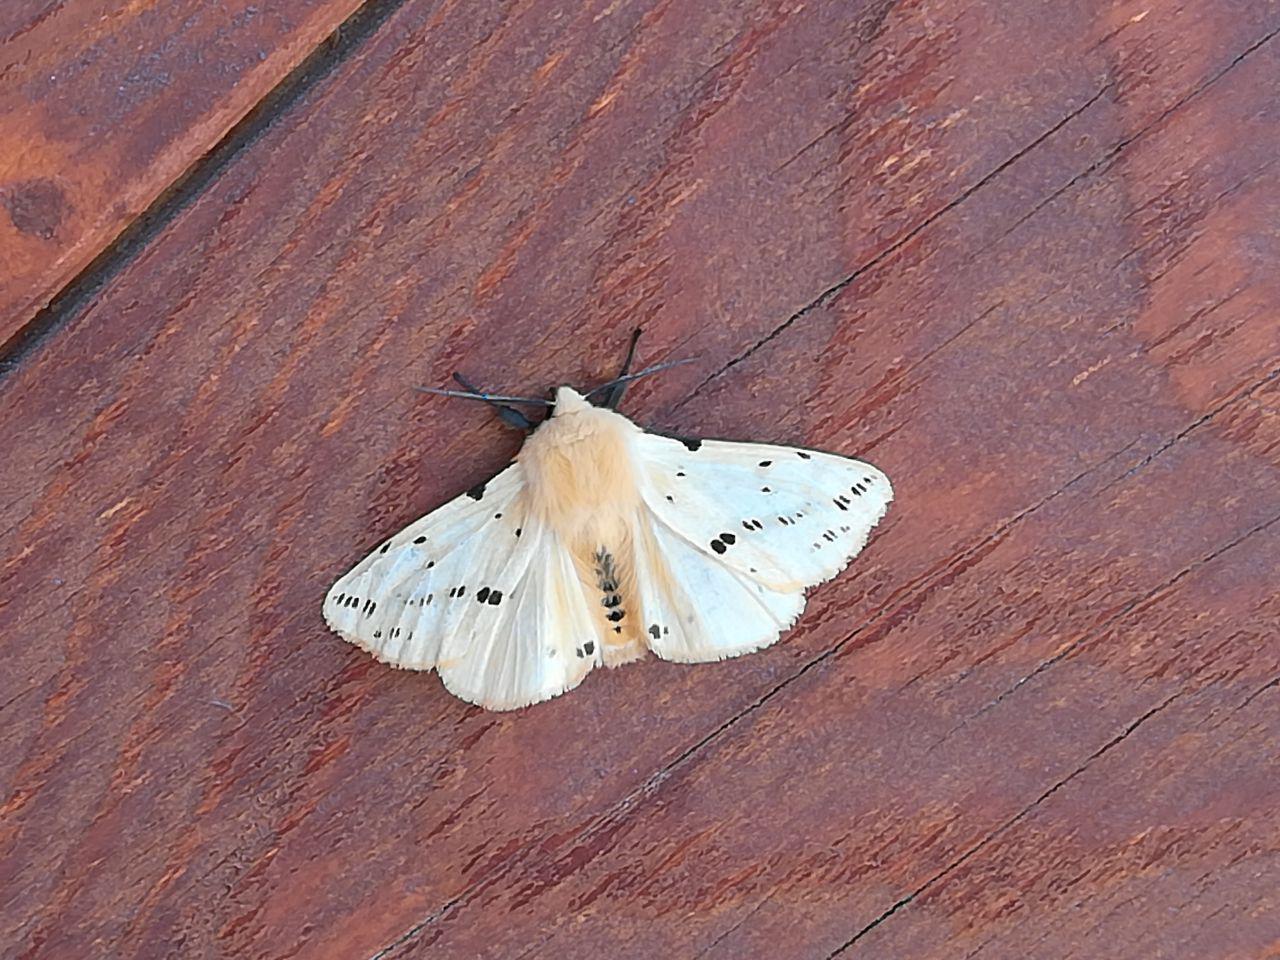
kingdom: Animalia
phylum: Arthropoda
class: Insecta
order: Lepidoptera
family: Erebidae
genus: Spilarctia
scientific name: Spilarctia lutea
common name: Buff ermine
